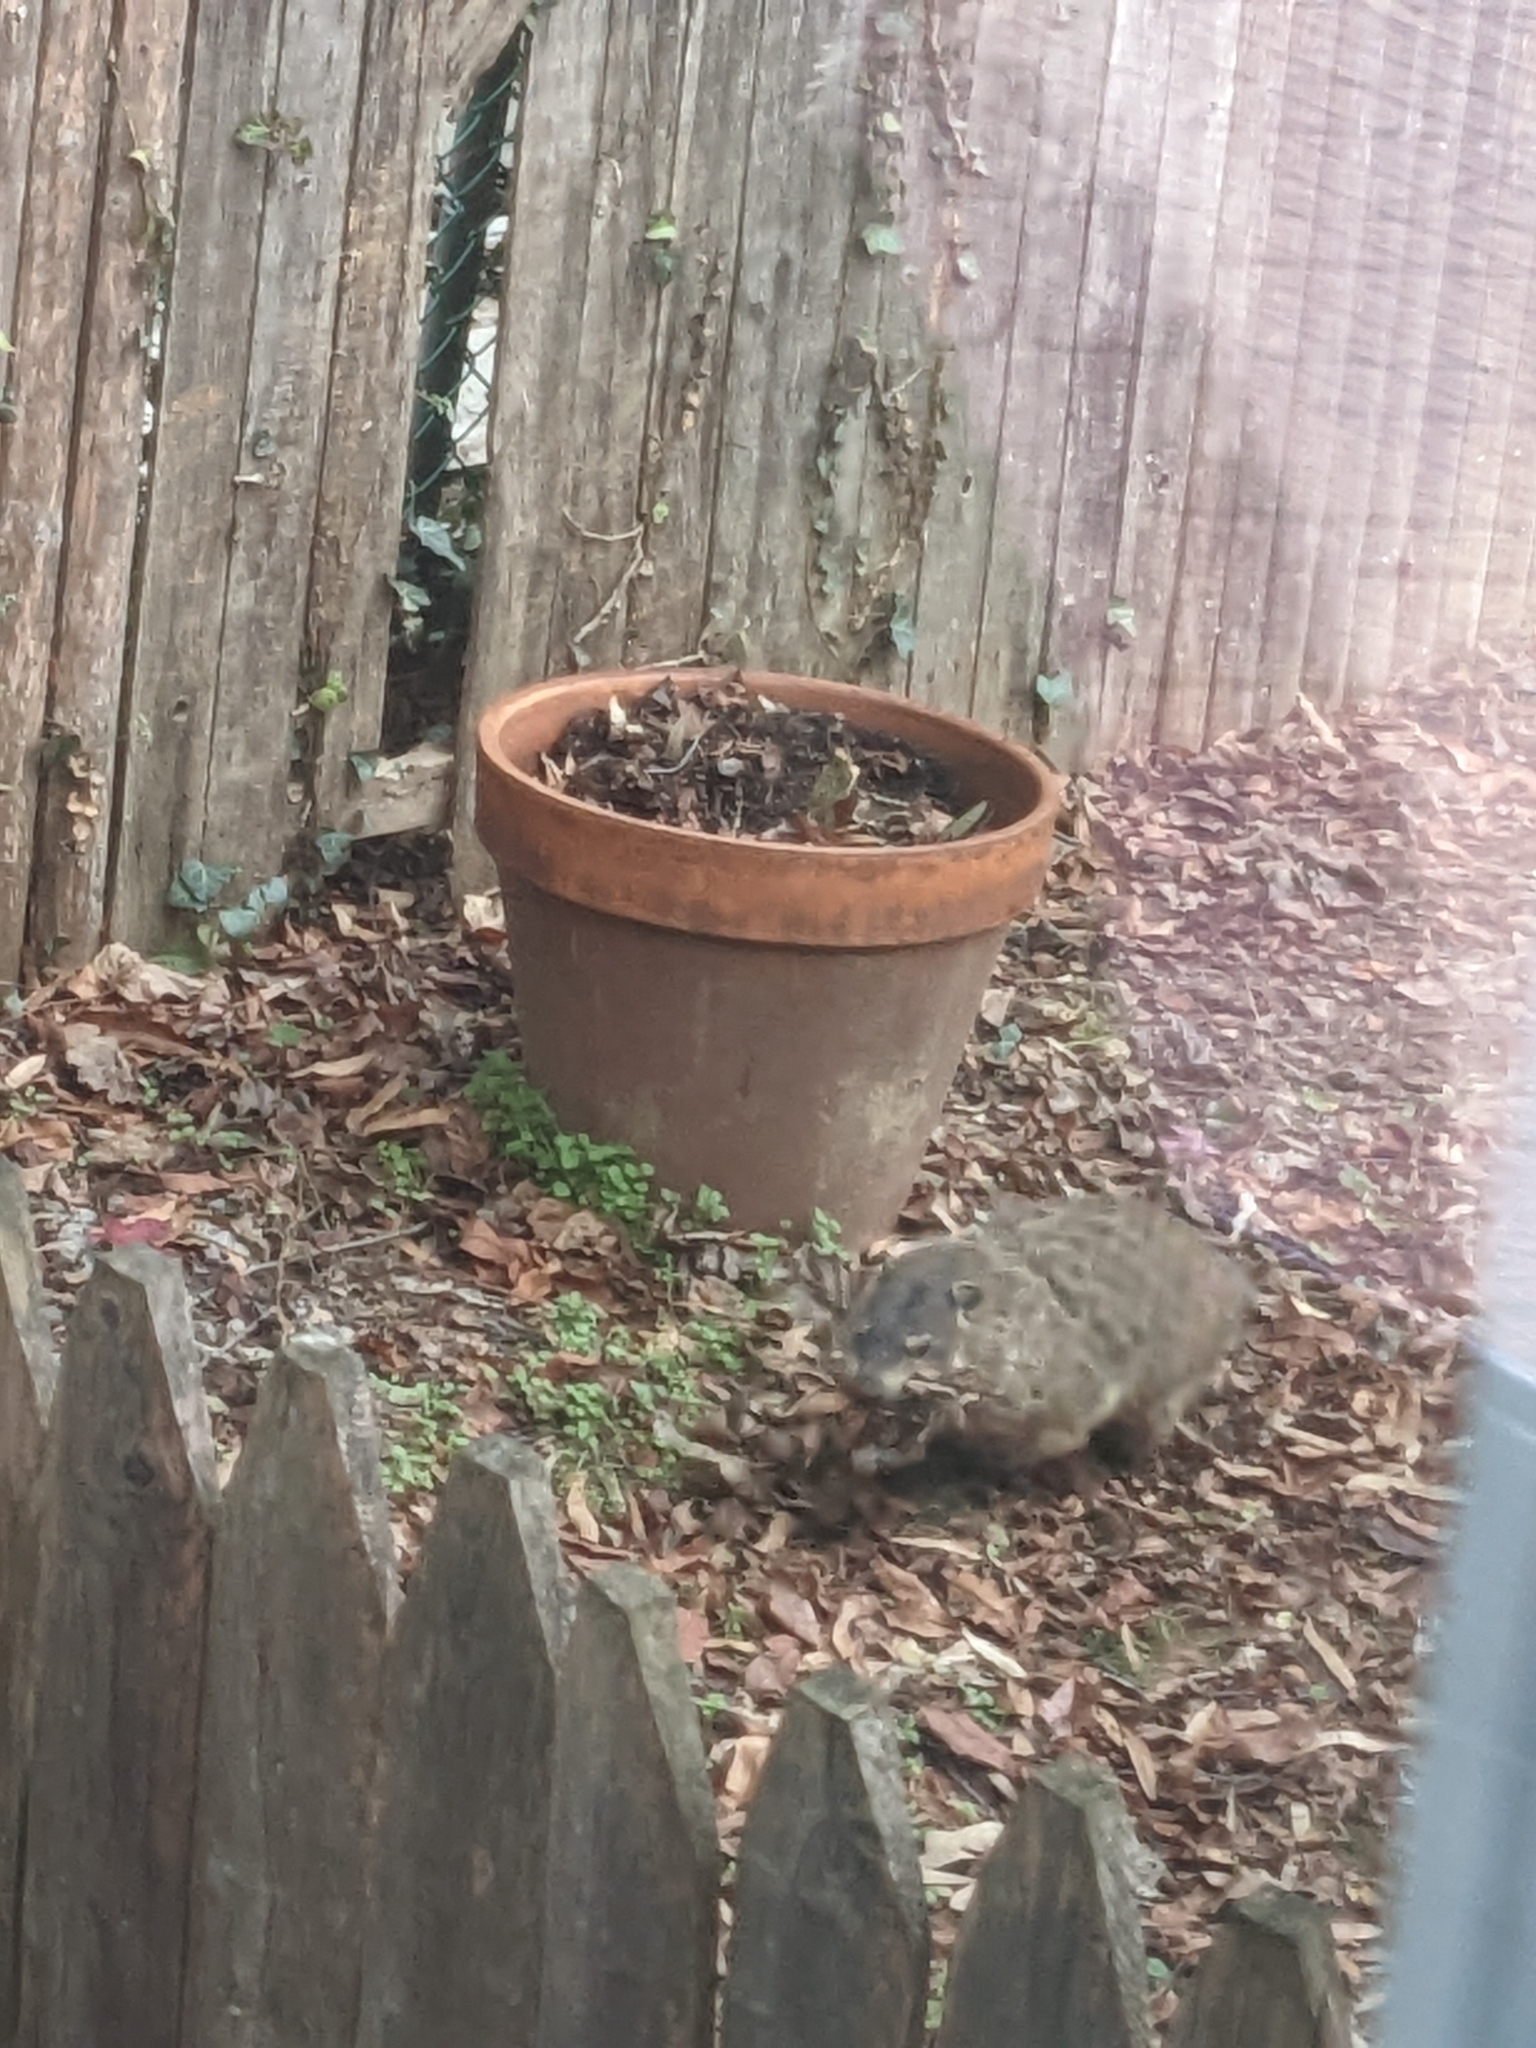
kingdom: Animalia
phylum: Chordata
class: Mammalia
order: Rodentia
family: Sciuridae
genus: Marmota
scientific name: Marmota monax
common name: Groundhog
